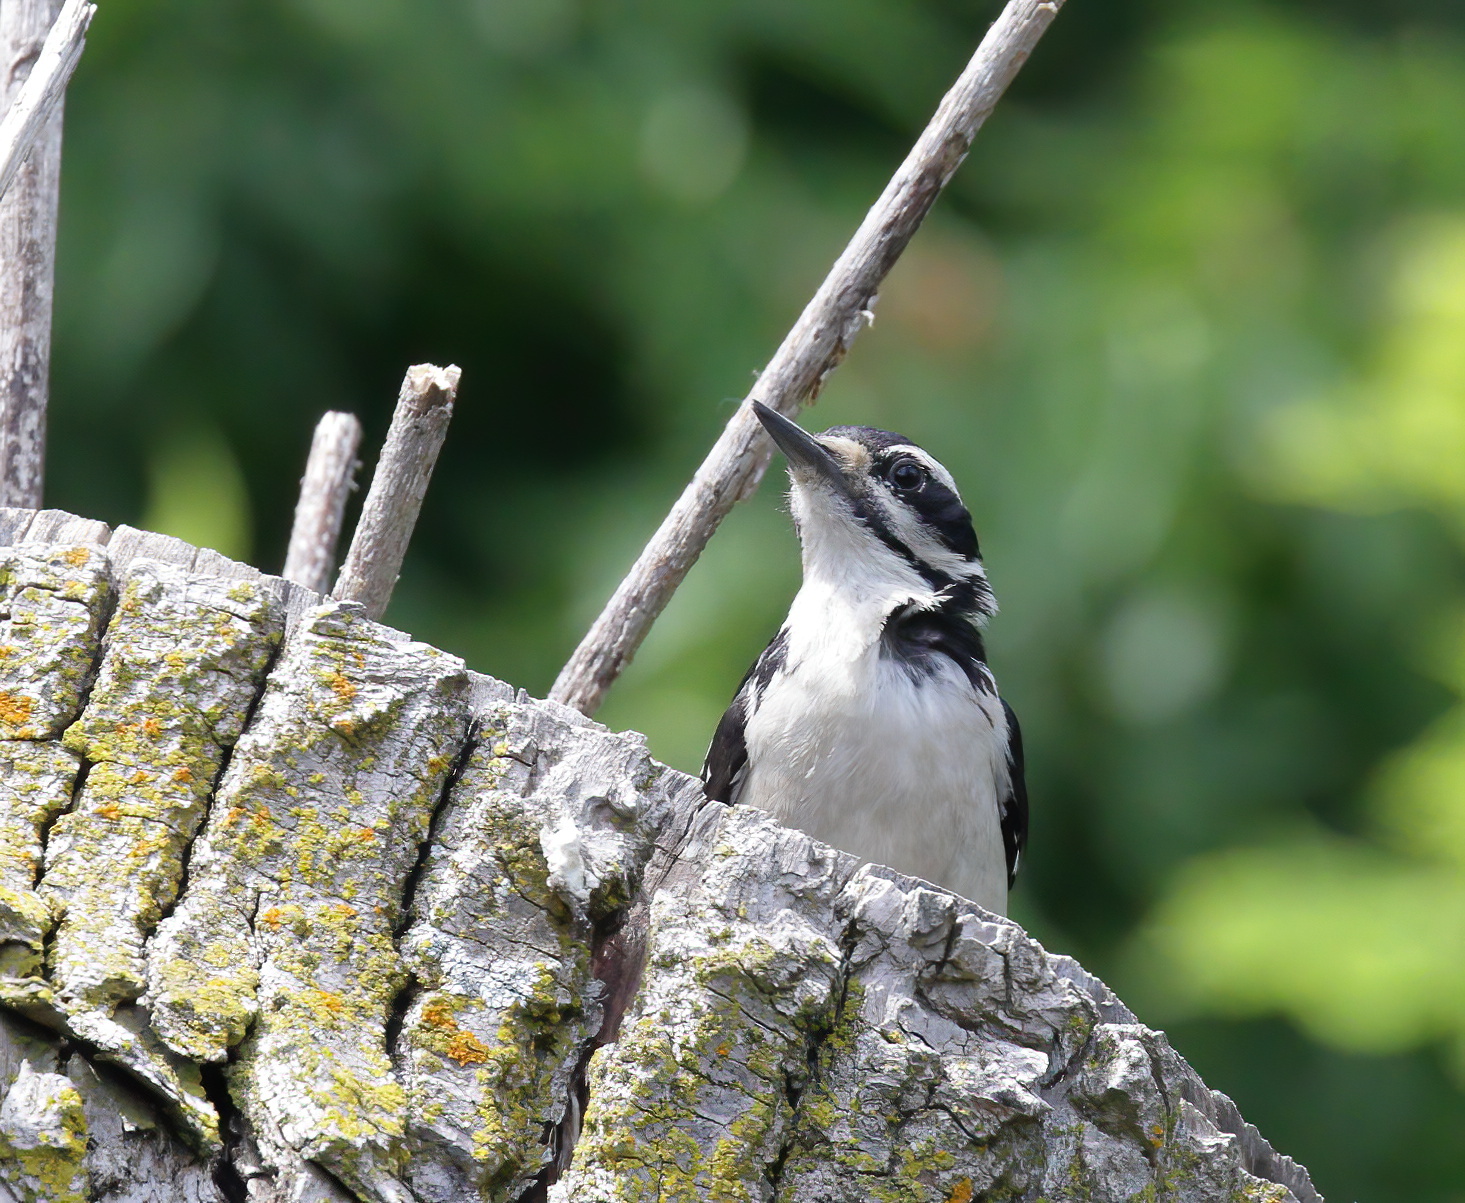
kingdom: Animalia
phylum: Chordata
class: Aves
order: Piciformes
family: Picidae
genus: Leuconotopicus
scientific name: Leuconotopicus villosus
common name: Hairy woodpecker
